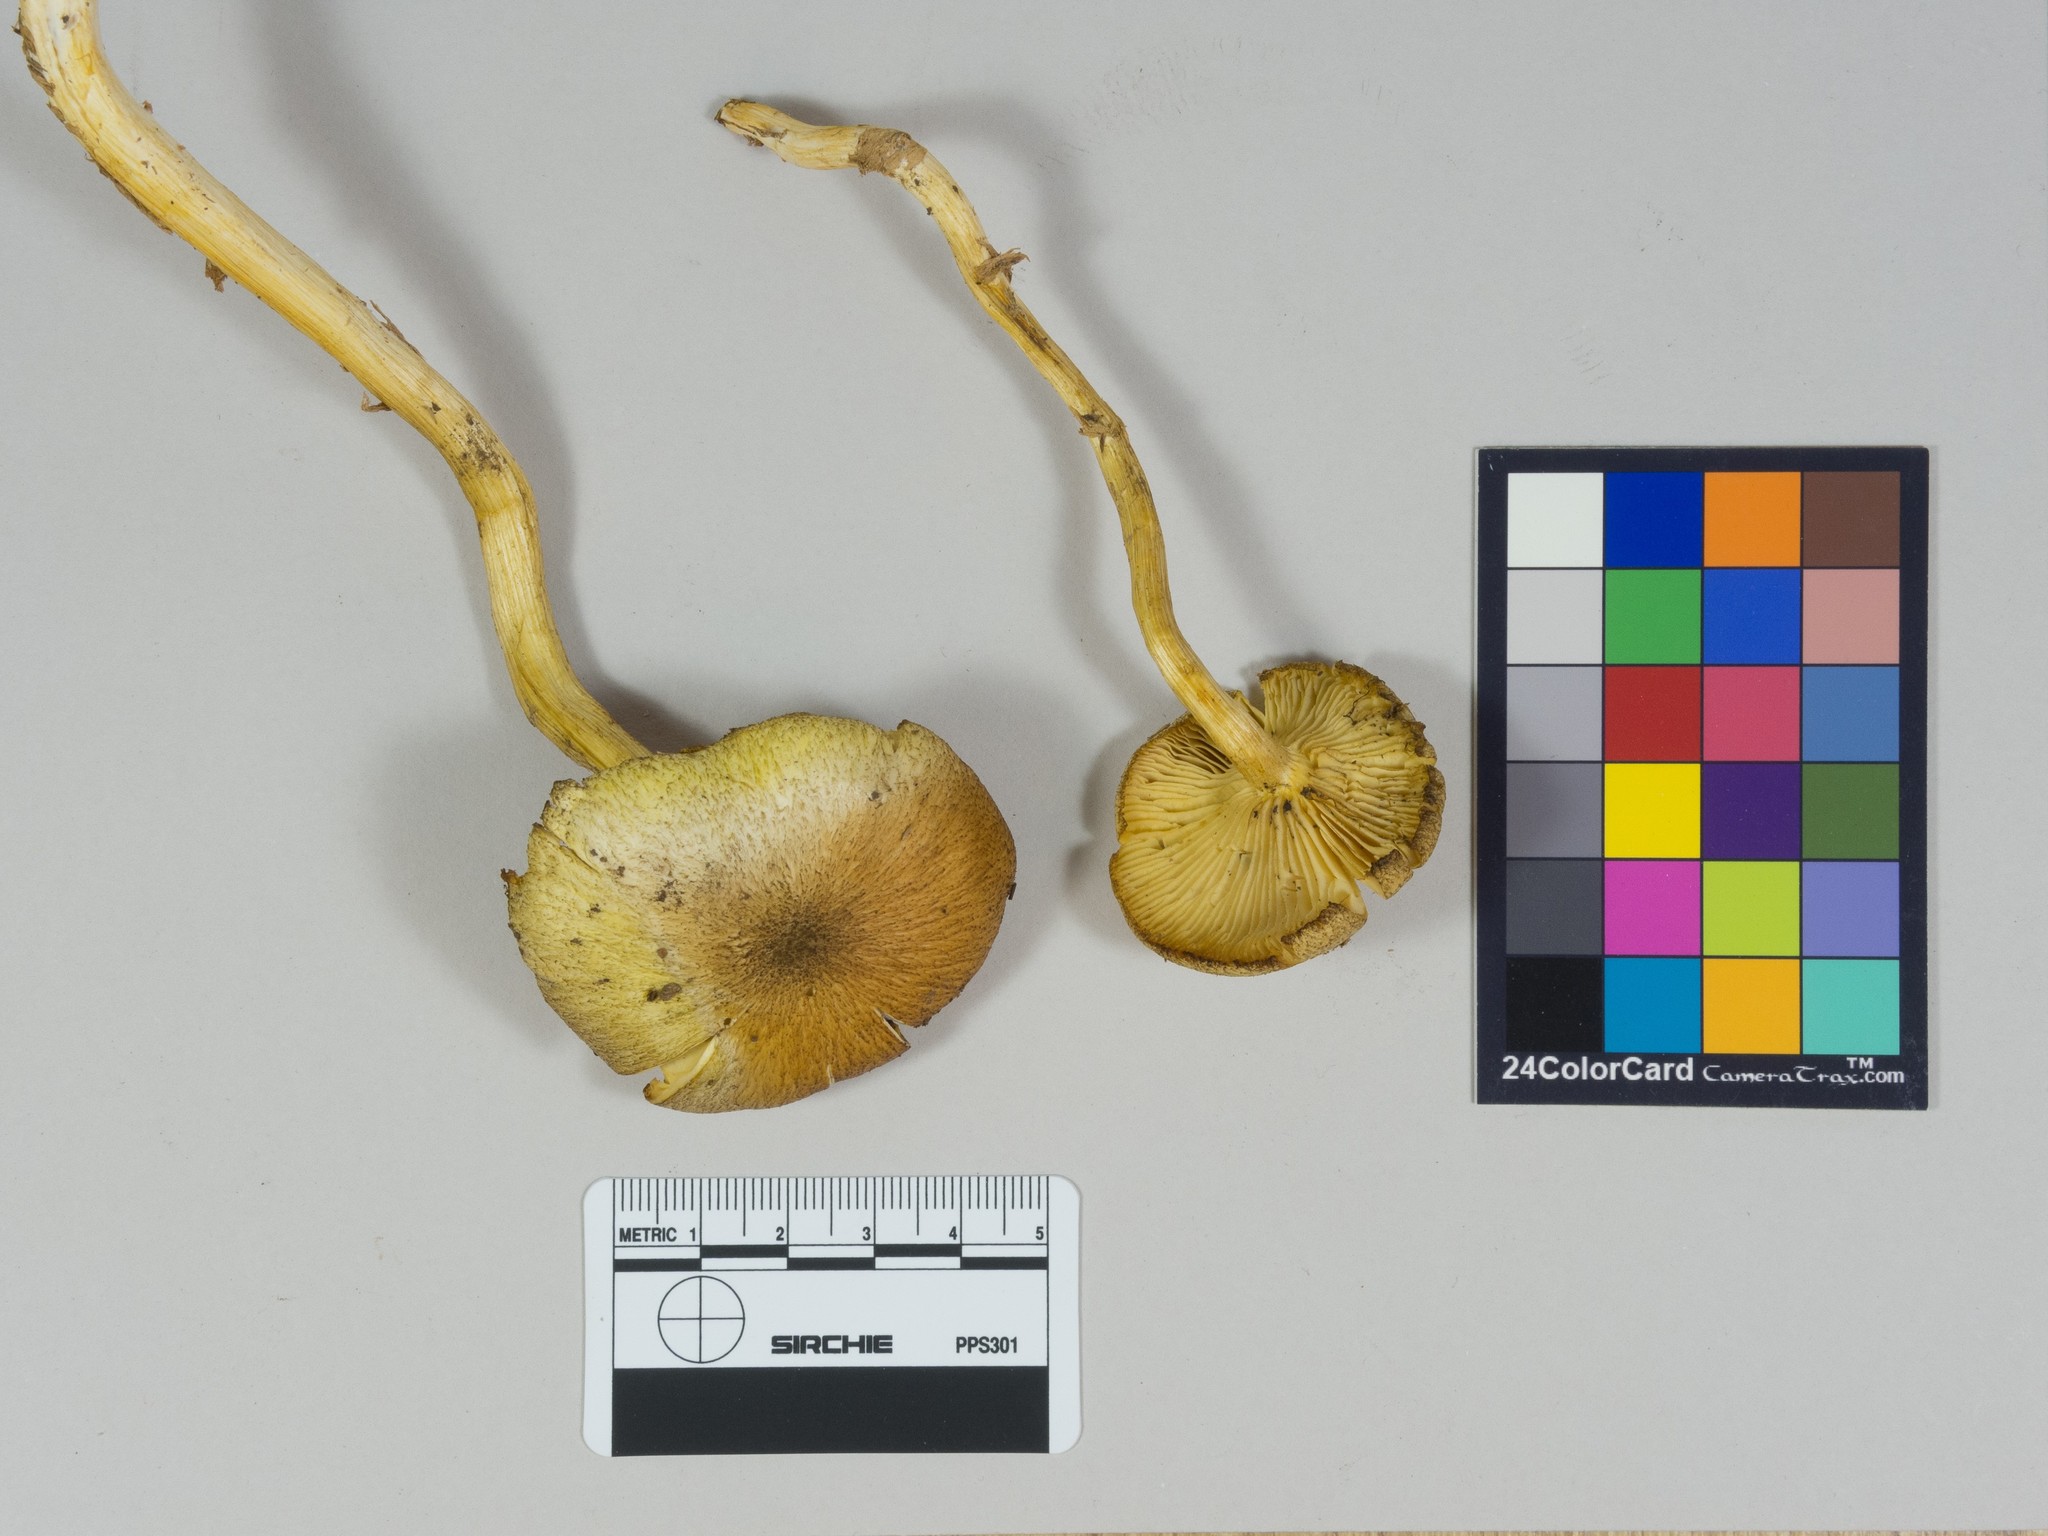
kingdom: Fungi
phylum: Basidiomycota
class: Agaricomycetes
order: Agaricales
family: Tricholomataceae
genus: Tricholomopsis
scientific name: Tricholomopsis decora
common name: Prunes and custard
